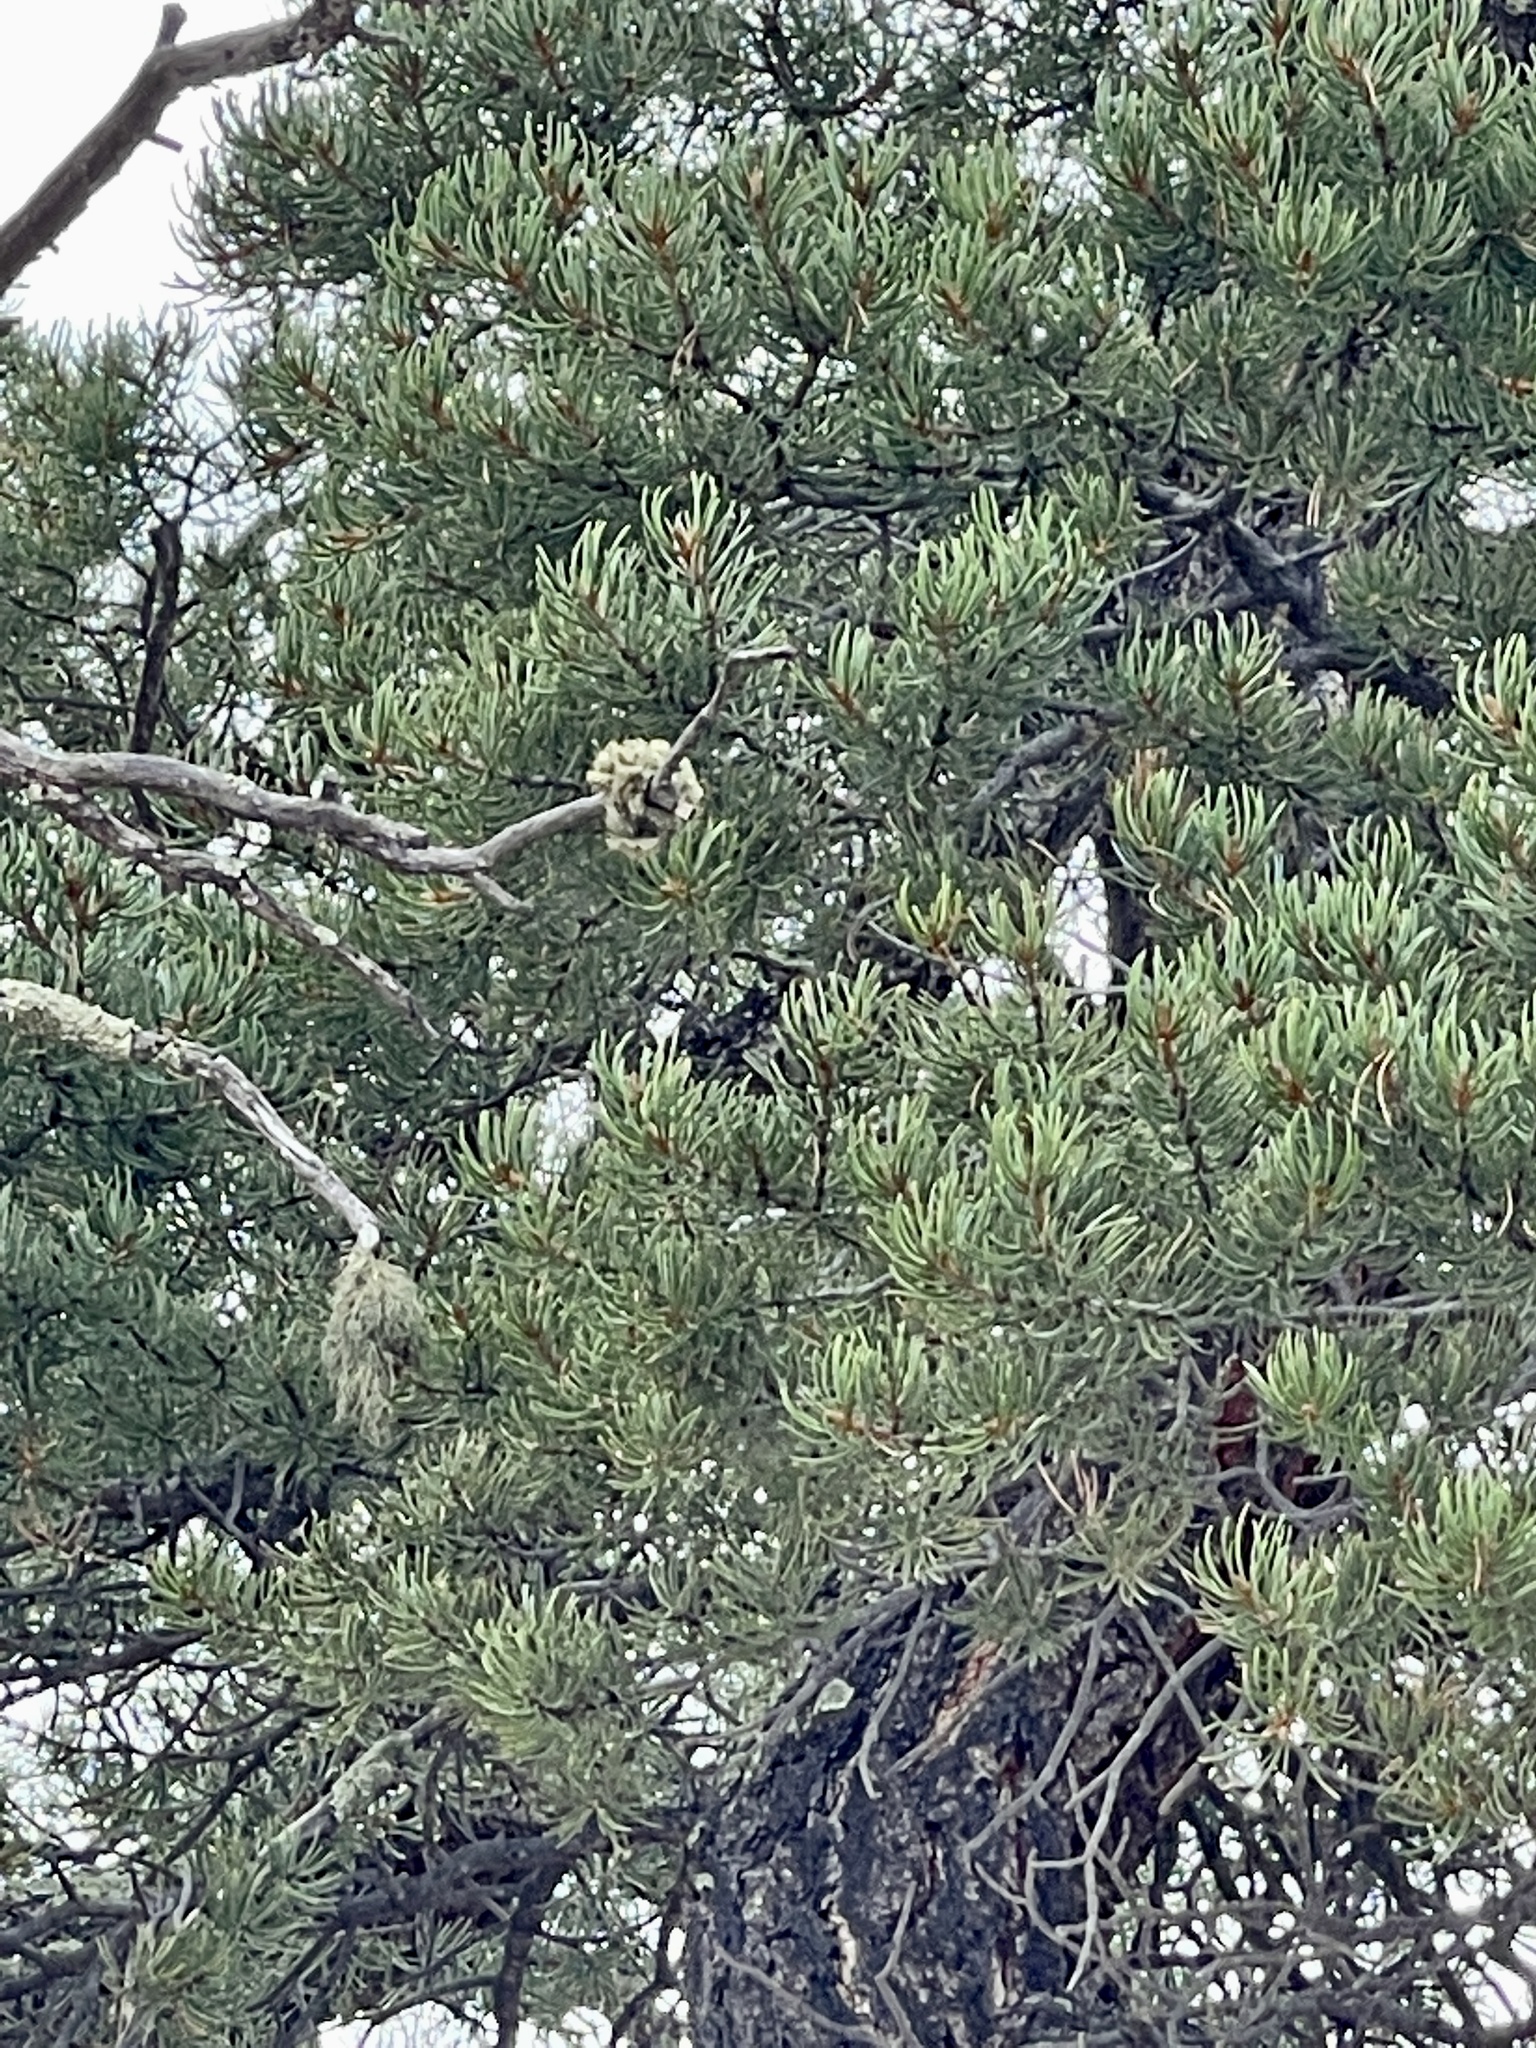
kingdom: Plantae
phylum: Tracheophyta
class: Pinopsida
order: Pinales
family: Pinaceae
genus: Pinus
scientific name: Pinus edulis
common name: Colorado pinyon
